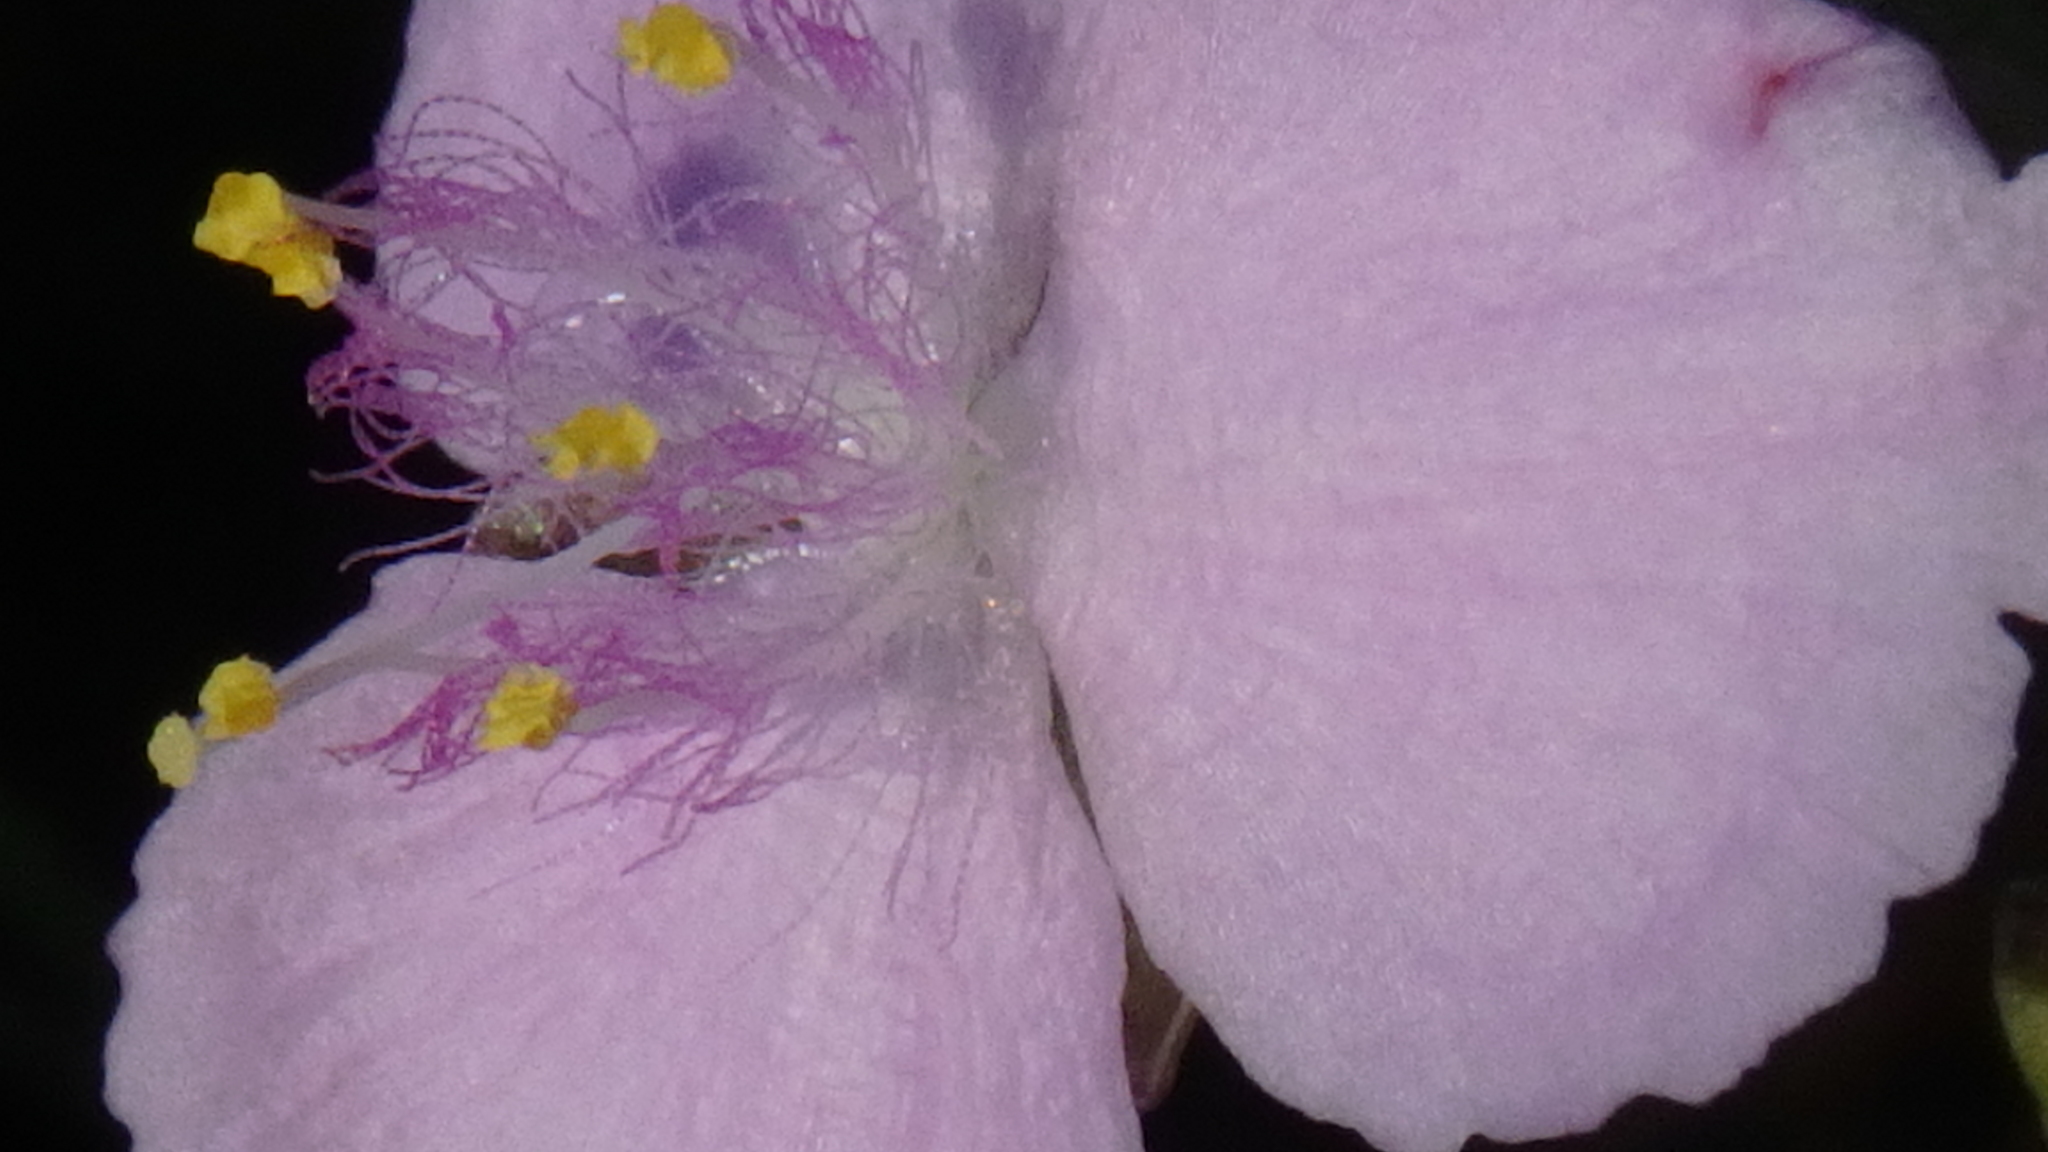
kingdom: Plantae
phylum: Tracheophyta
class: Liliopsida
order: Commelinales
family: Commelinaceae
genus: Callisia
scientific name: Callisia ornata
